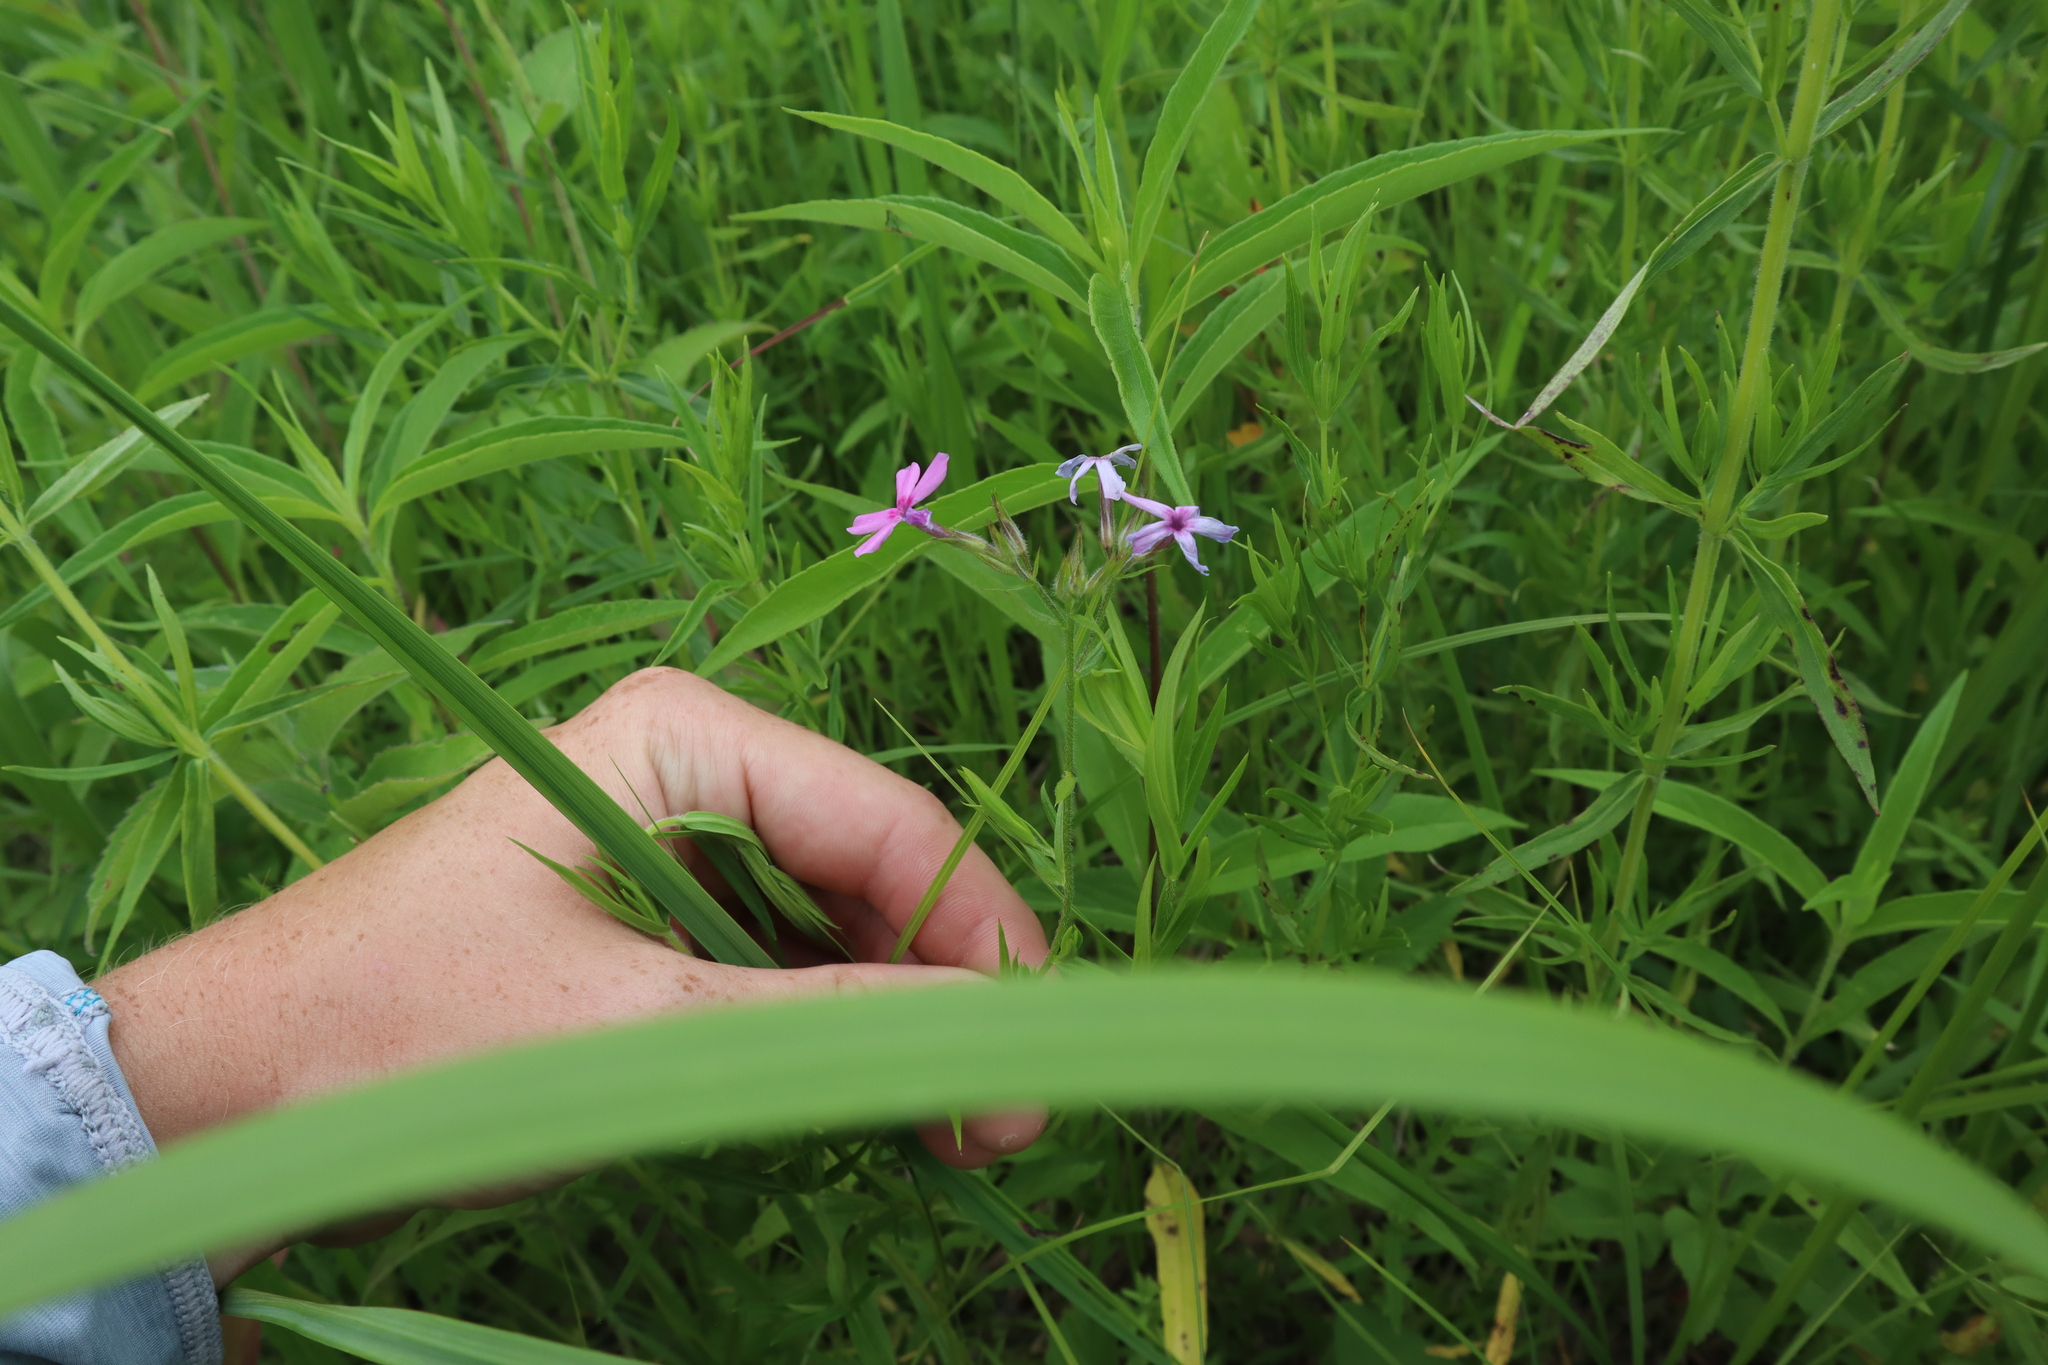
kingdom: Plantae
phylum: Tracheophyta
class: Magnoliopsida
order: Ericales
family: Polemoniaceae
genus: Phlox
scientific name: Phlox pilosa
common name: Prairie phlox
